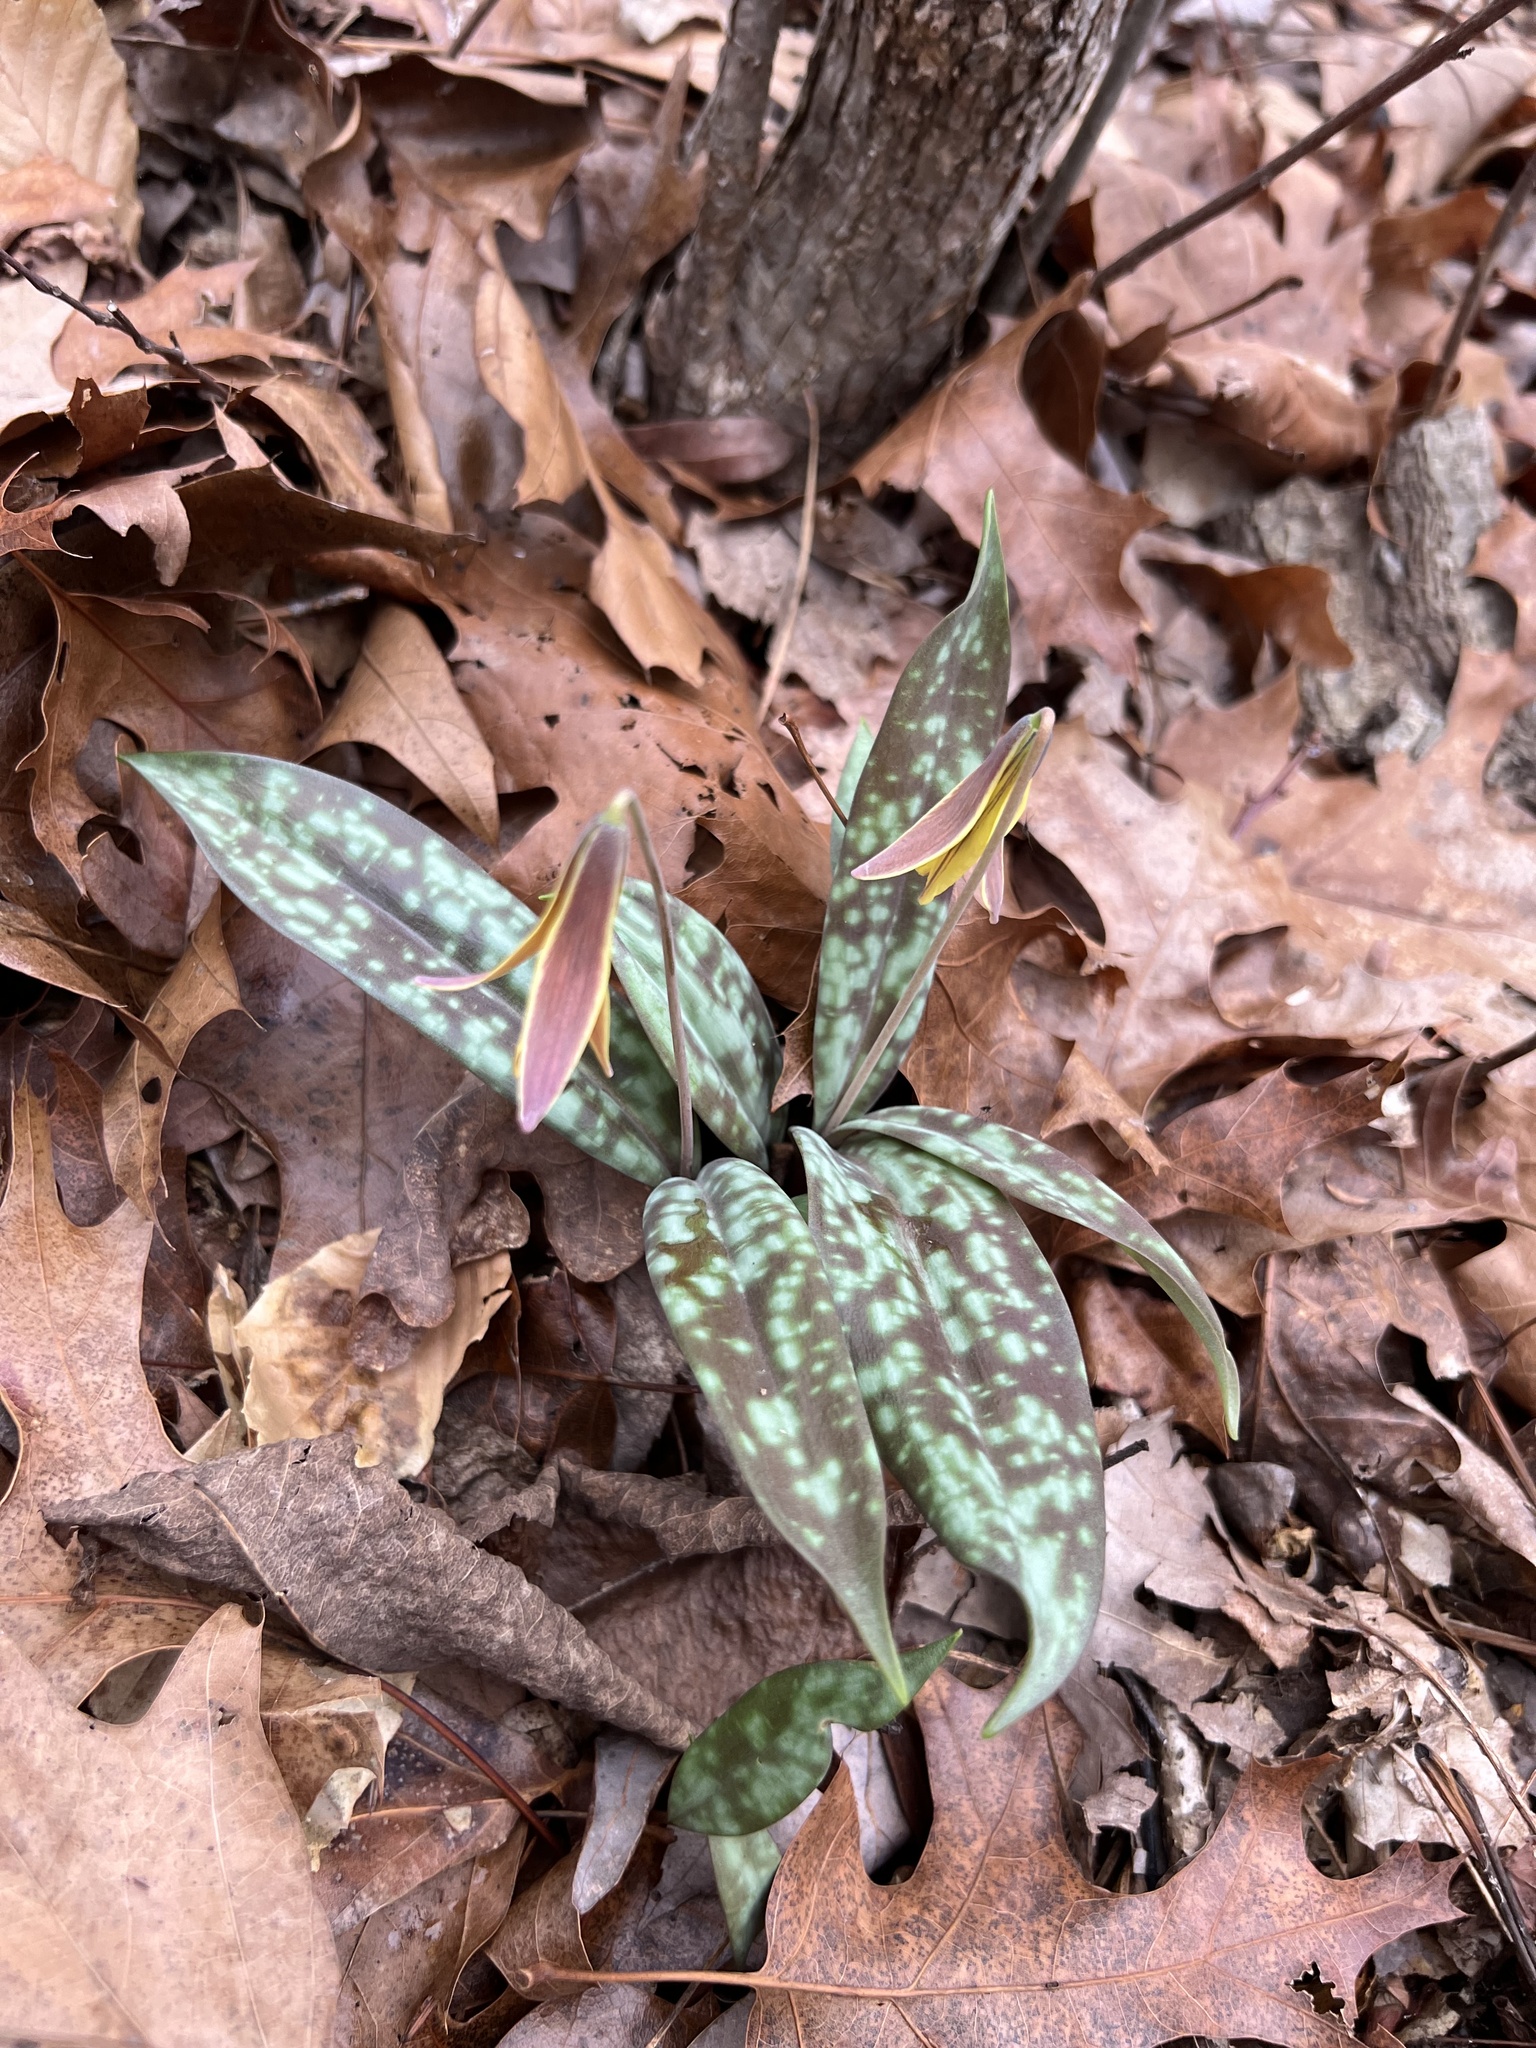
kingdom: Plantae
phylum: Tracheophyta
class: Liliopsida
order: Liliales
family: Liliaceae
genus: Erythronium
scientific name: Erythronium umbilicatum
